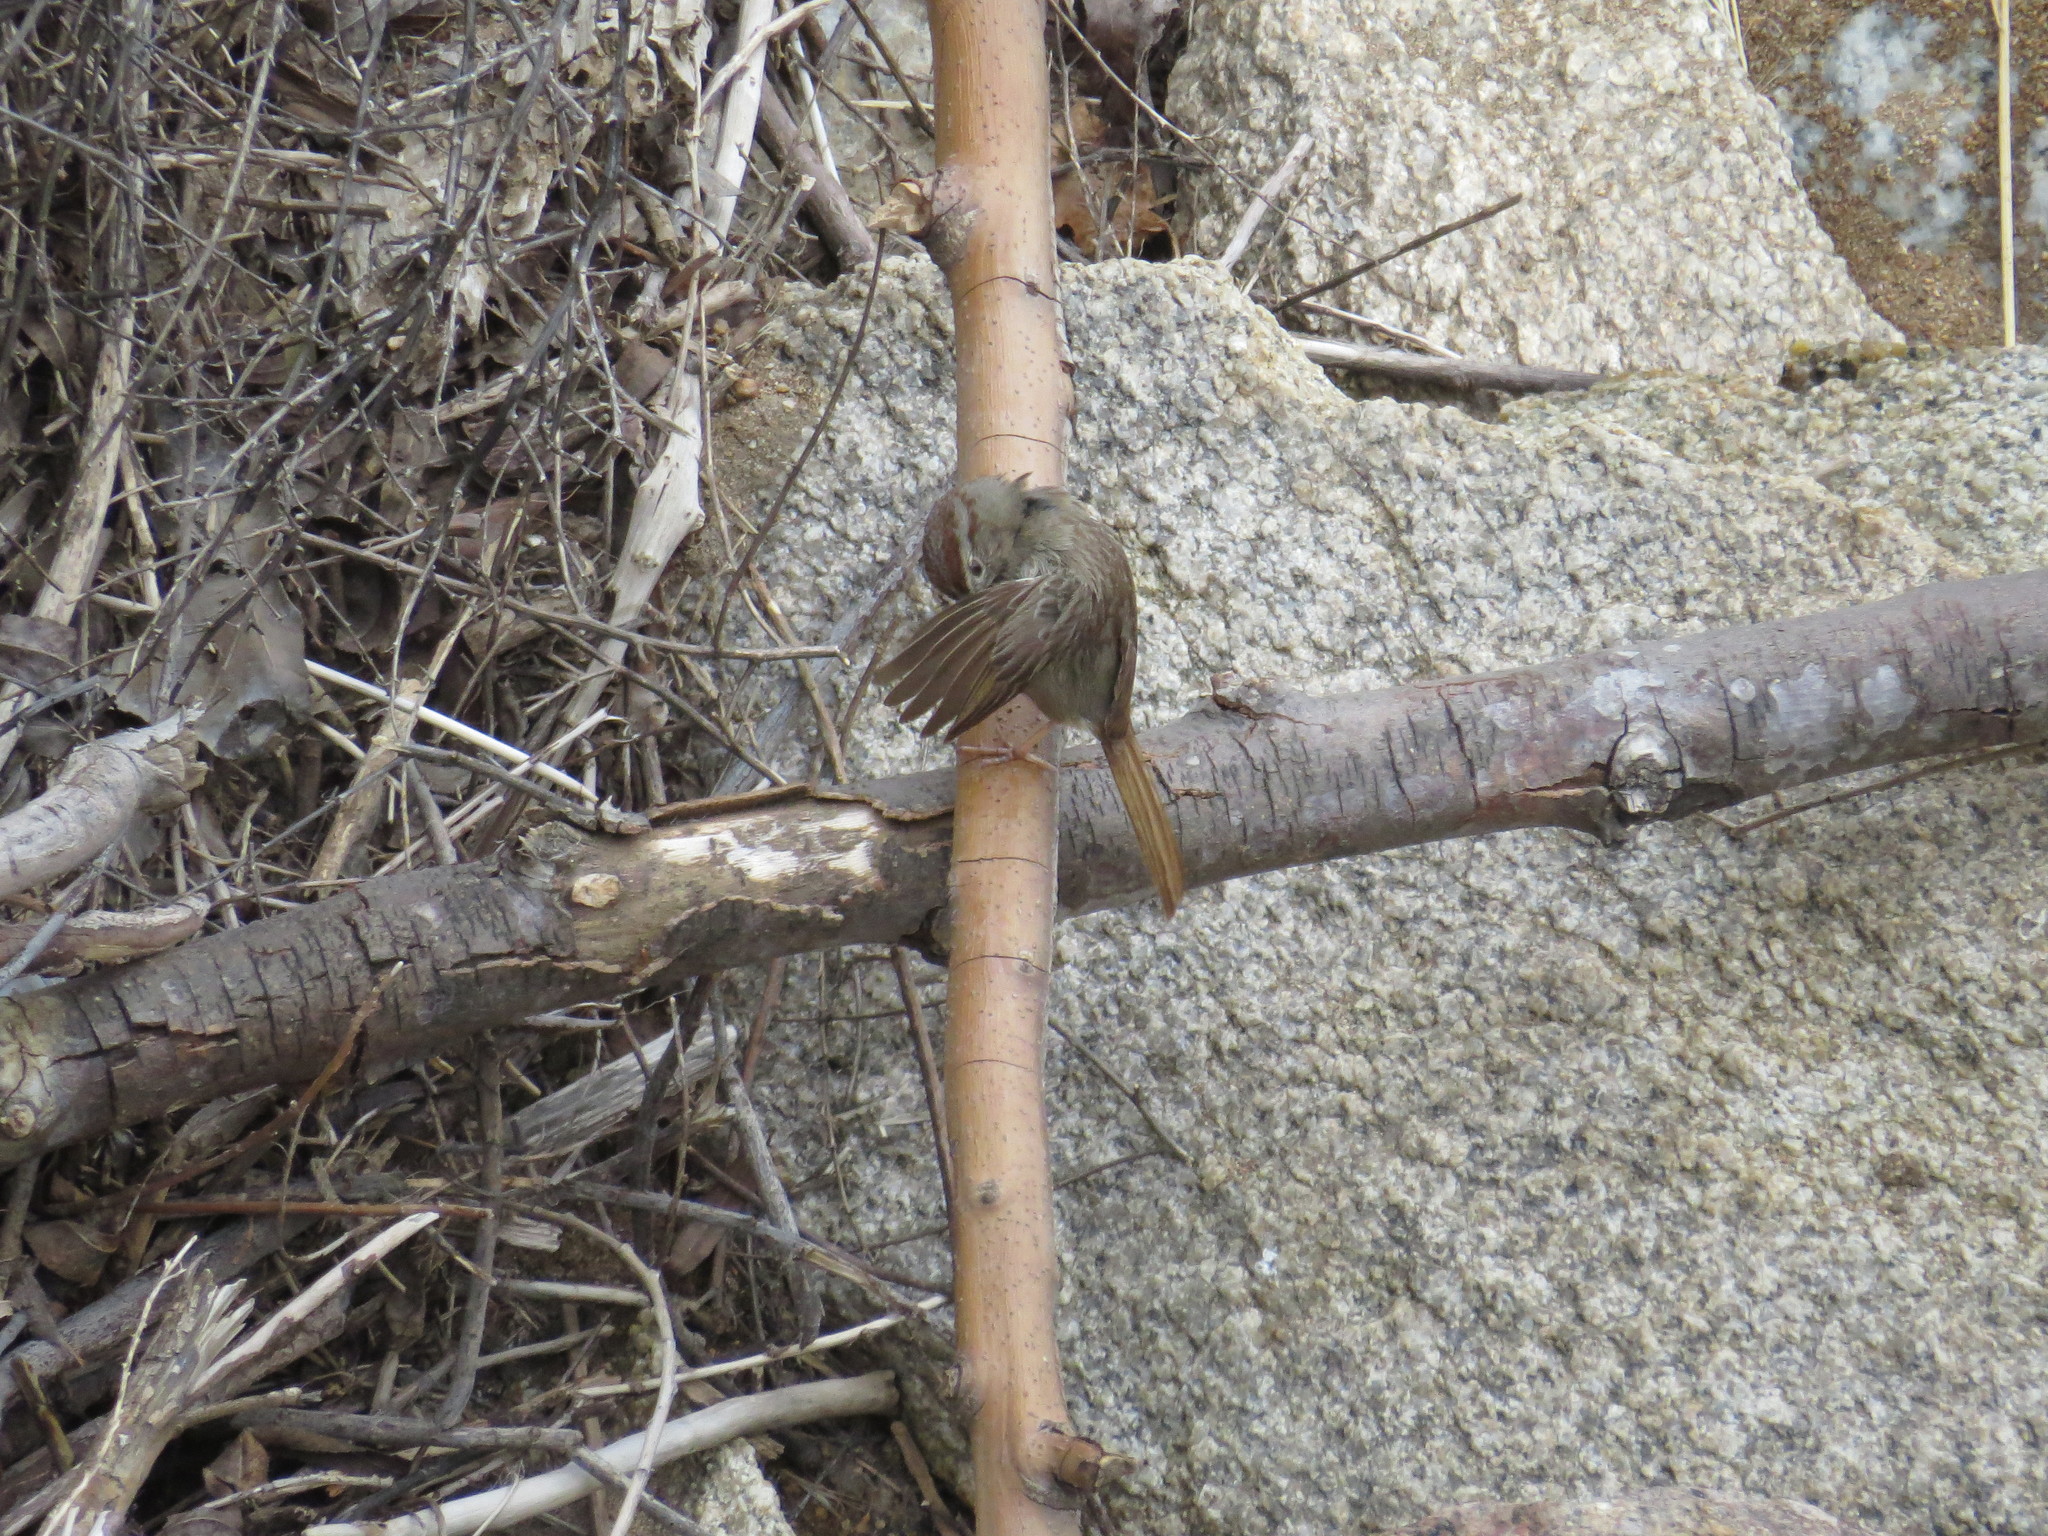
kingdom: Animalia
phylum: Chordata
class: Aves
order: Passeriformes
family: Passerellidae
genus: Aimophila
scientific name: Aimophila ruficeps
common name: Rufous-crowned sparrow
